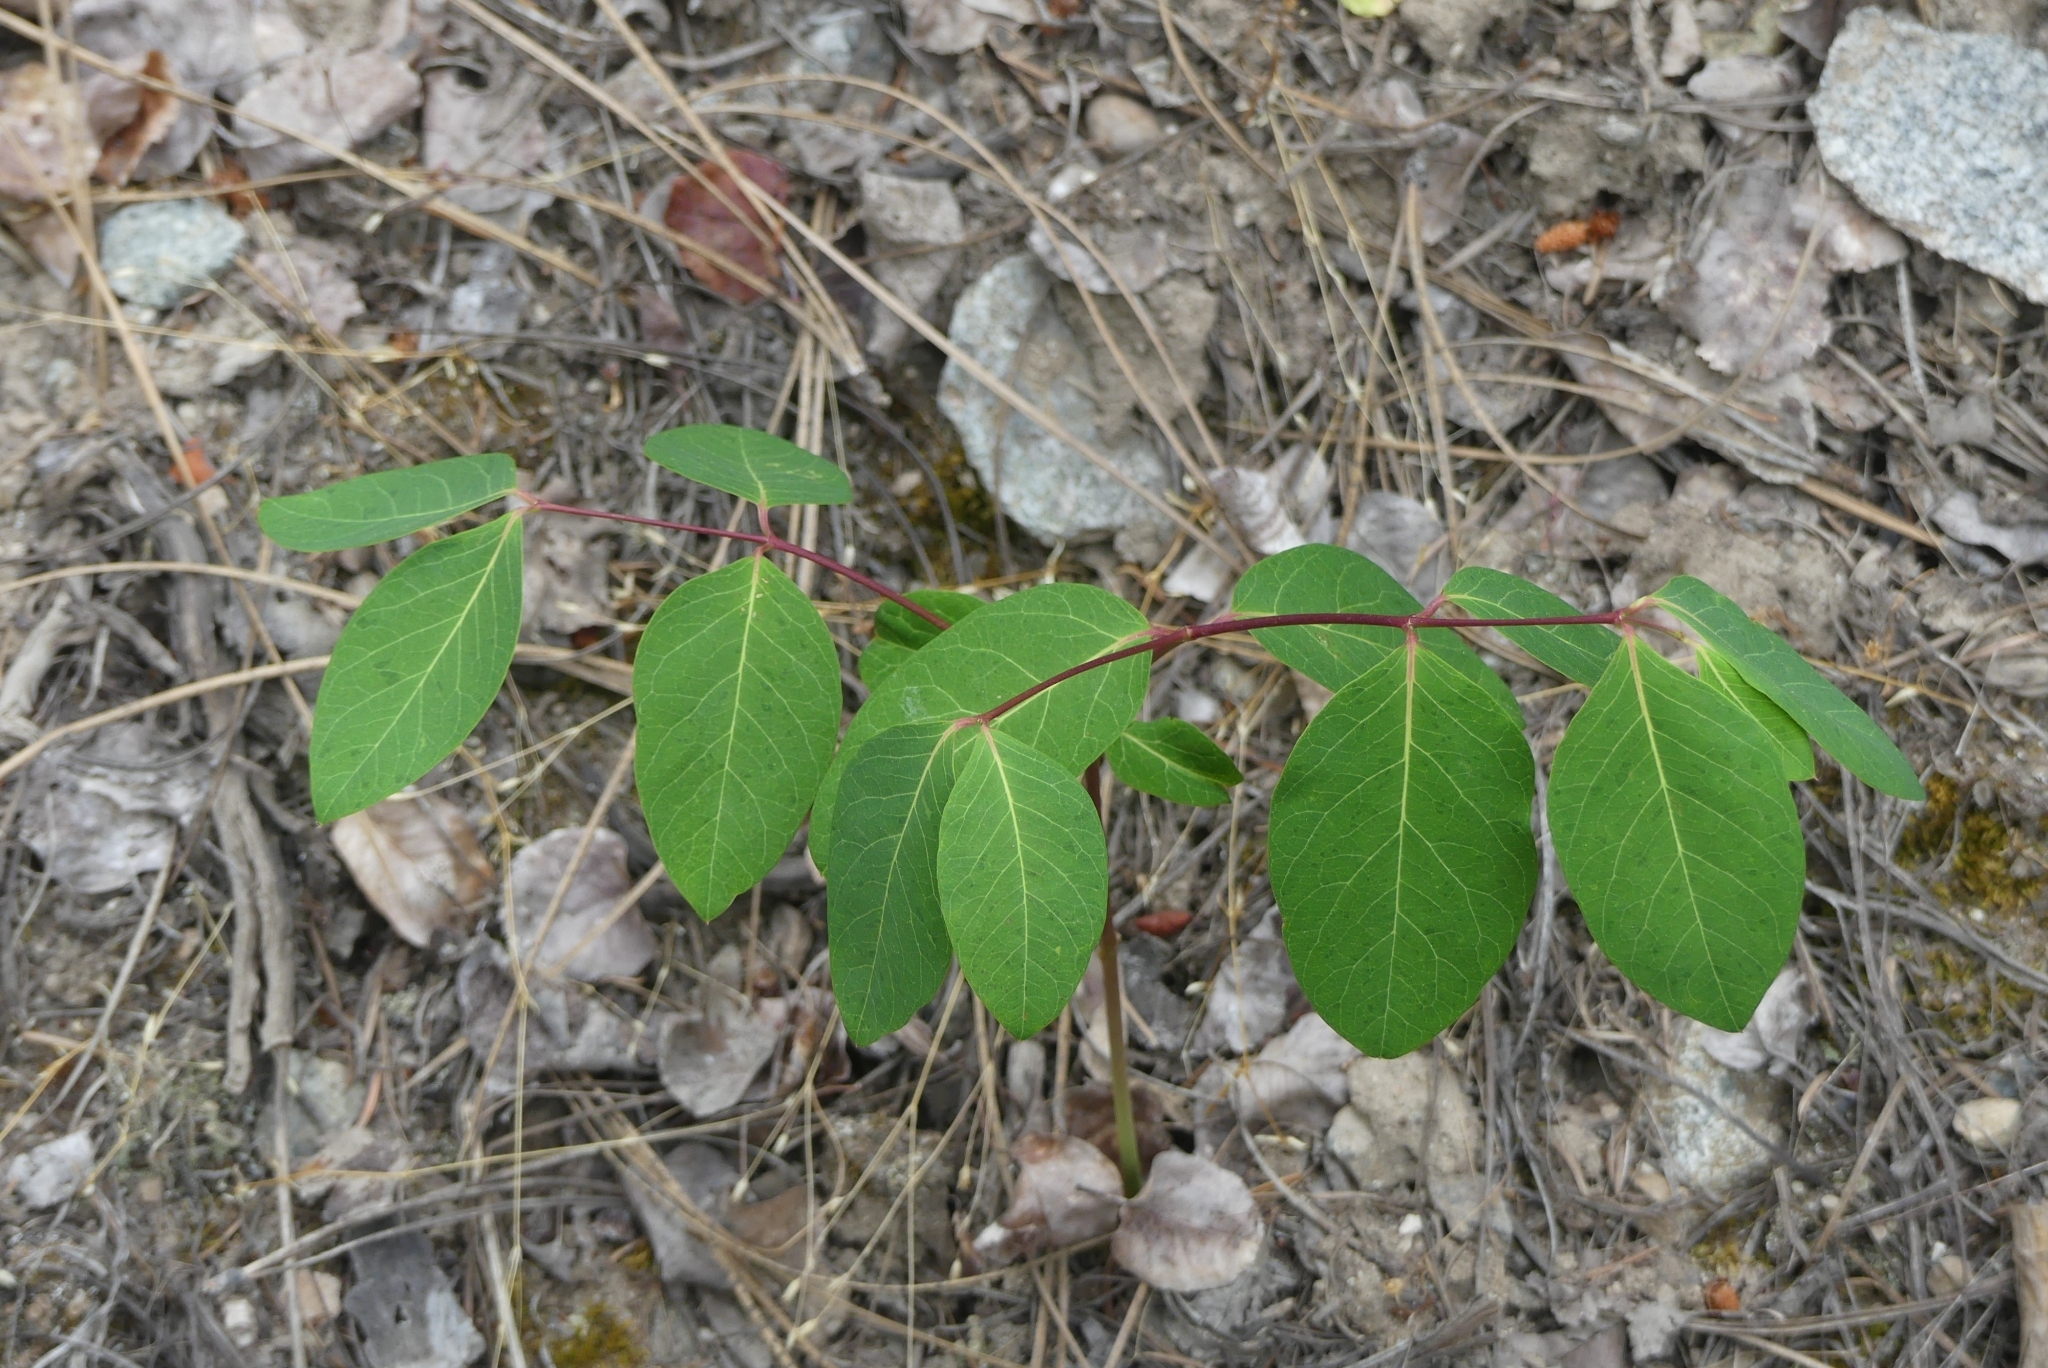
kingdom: Plantae
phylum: Tracheophyta
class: Magnoliopsida
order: Gentianales
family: Apocynaceae
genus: Apocynum
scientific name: Apocynum androsaemifolium
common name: Spreading dogbane
